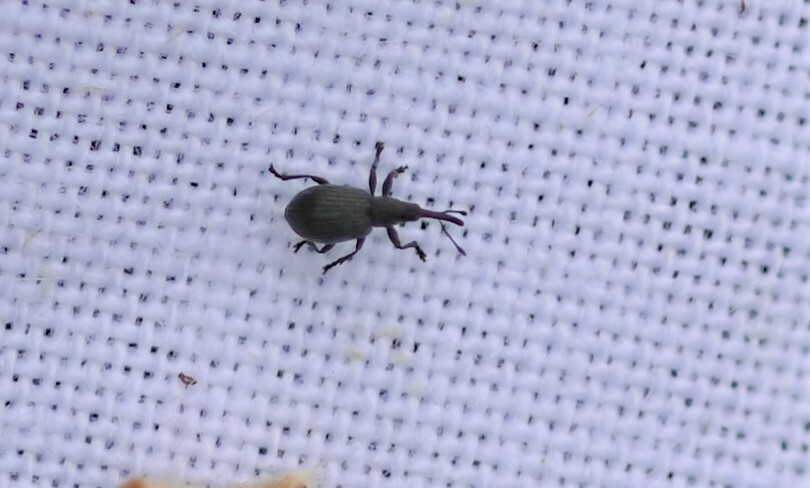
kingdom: Animalia
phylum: Arthropoda
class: Insecta
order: Coleoptera
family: Apionidae
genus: Ischnopterapion
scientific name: Ischnopterapion loti
